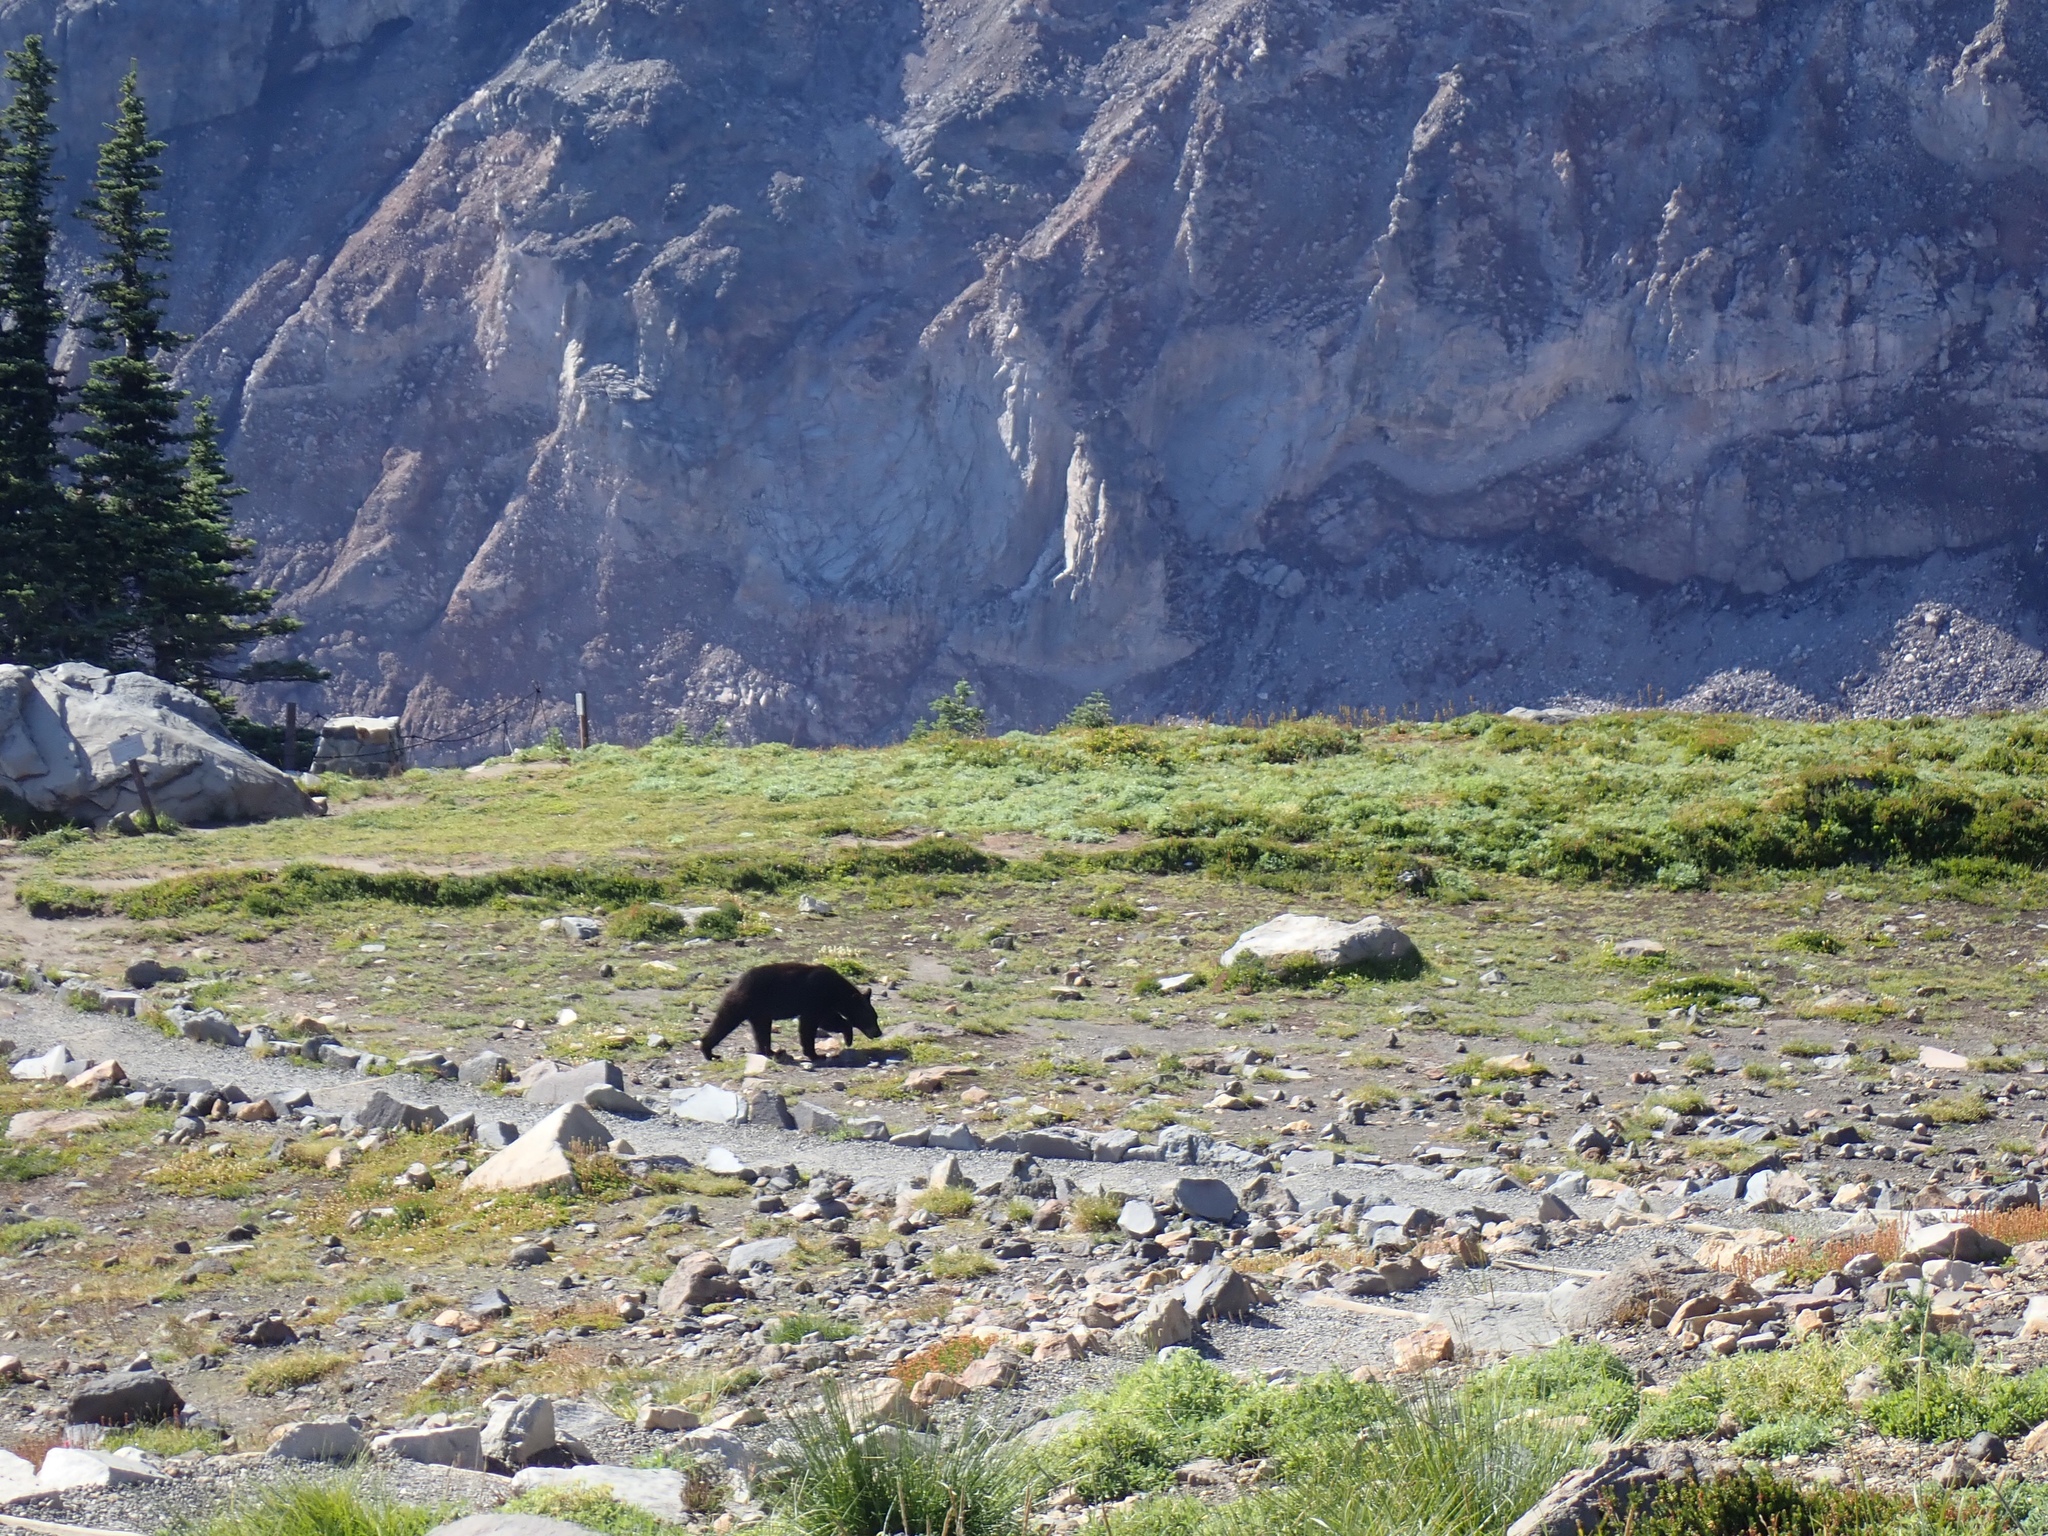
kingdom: Animalia
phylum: Chordata
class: Mammalia
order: Carnivora
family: Ursidae
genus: Ursus
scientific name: Ursus americanus
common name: American black bear
